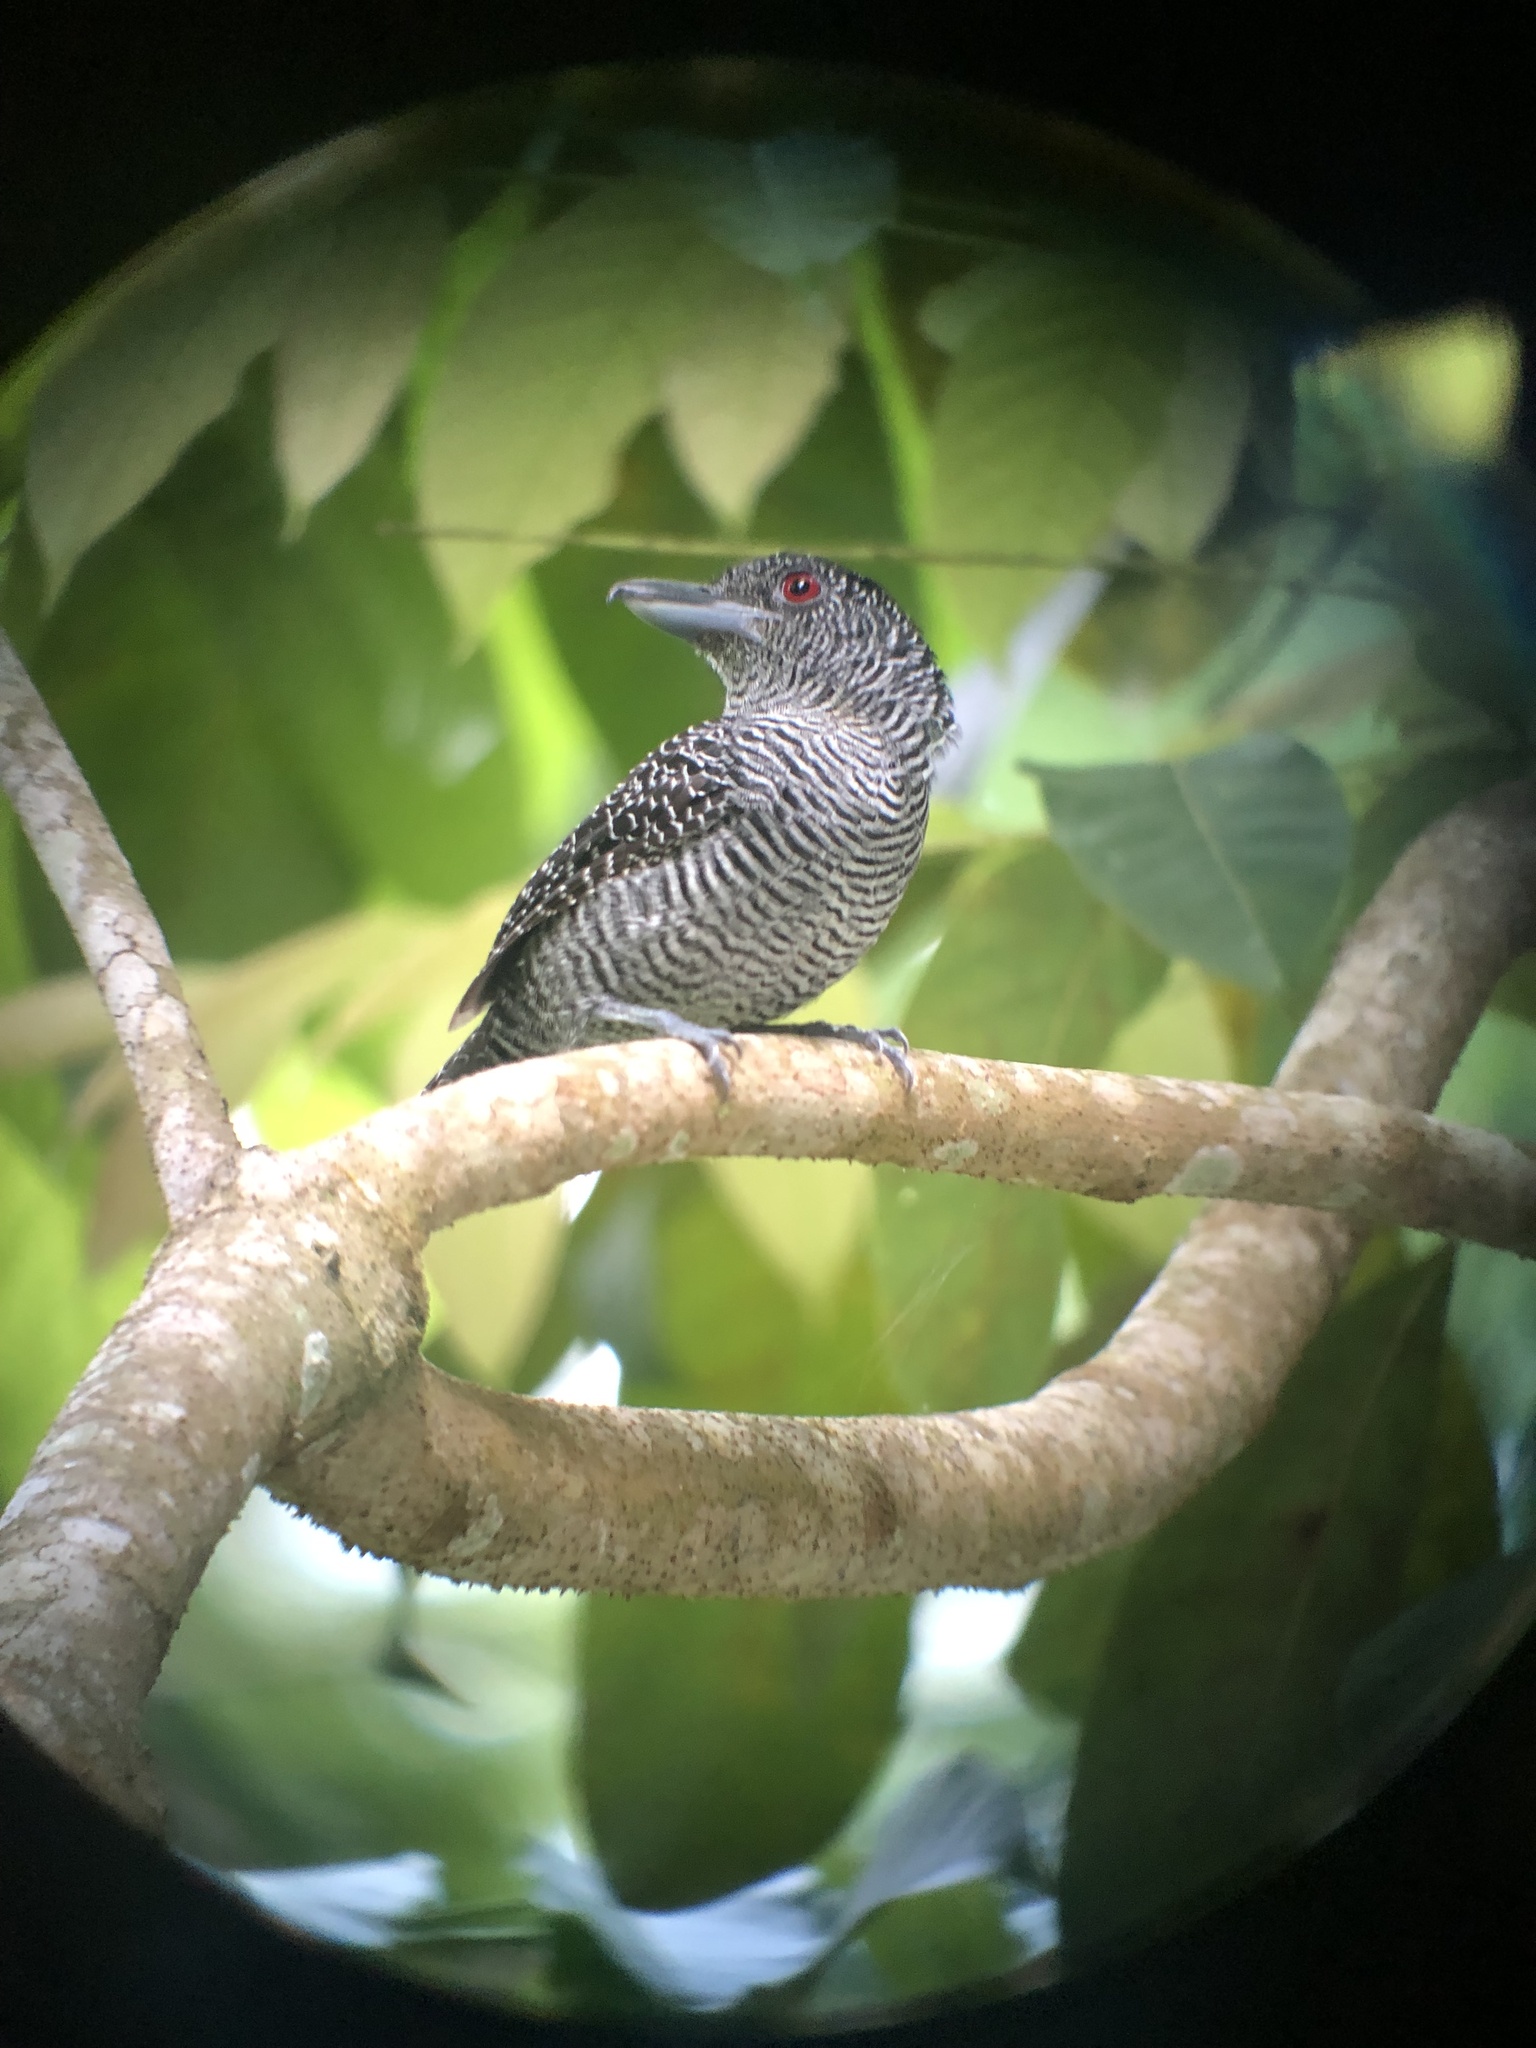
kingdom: Animalia
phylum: Chordata
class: Aves
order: Passeriformes
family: Thamnophilidae
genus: Cymbilaimus
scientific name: Cymbilaimus lineatus
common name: Fasciated antshrike
